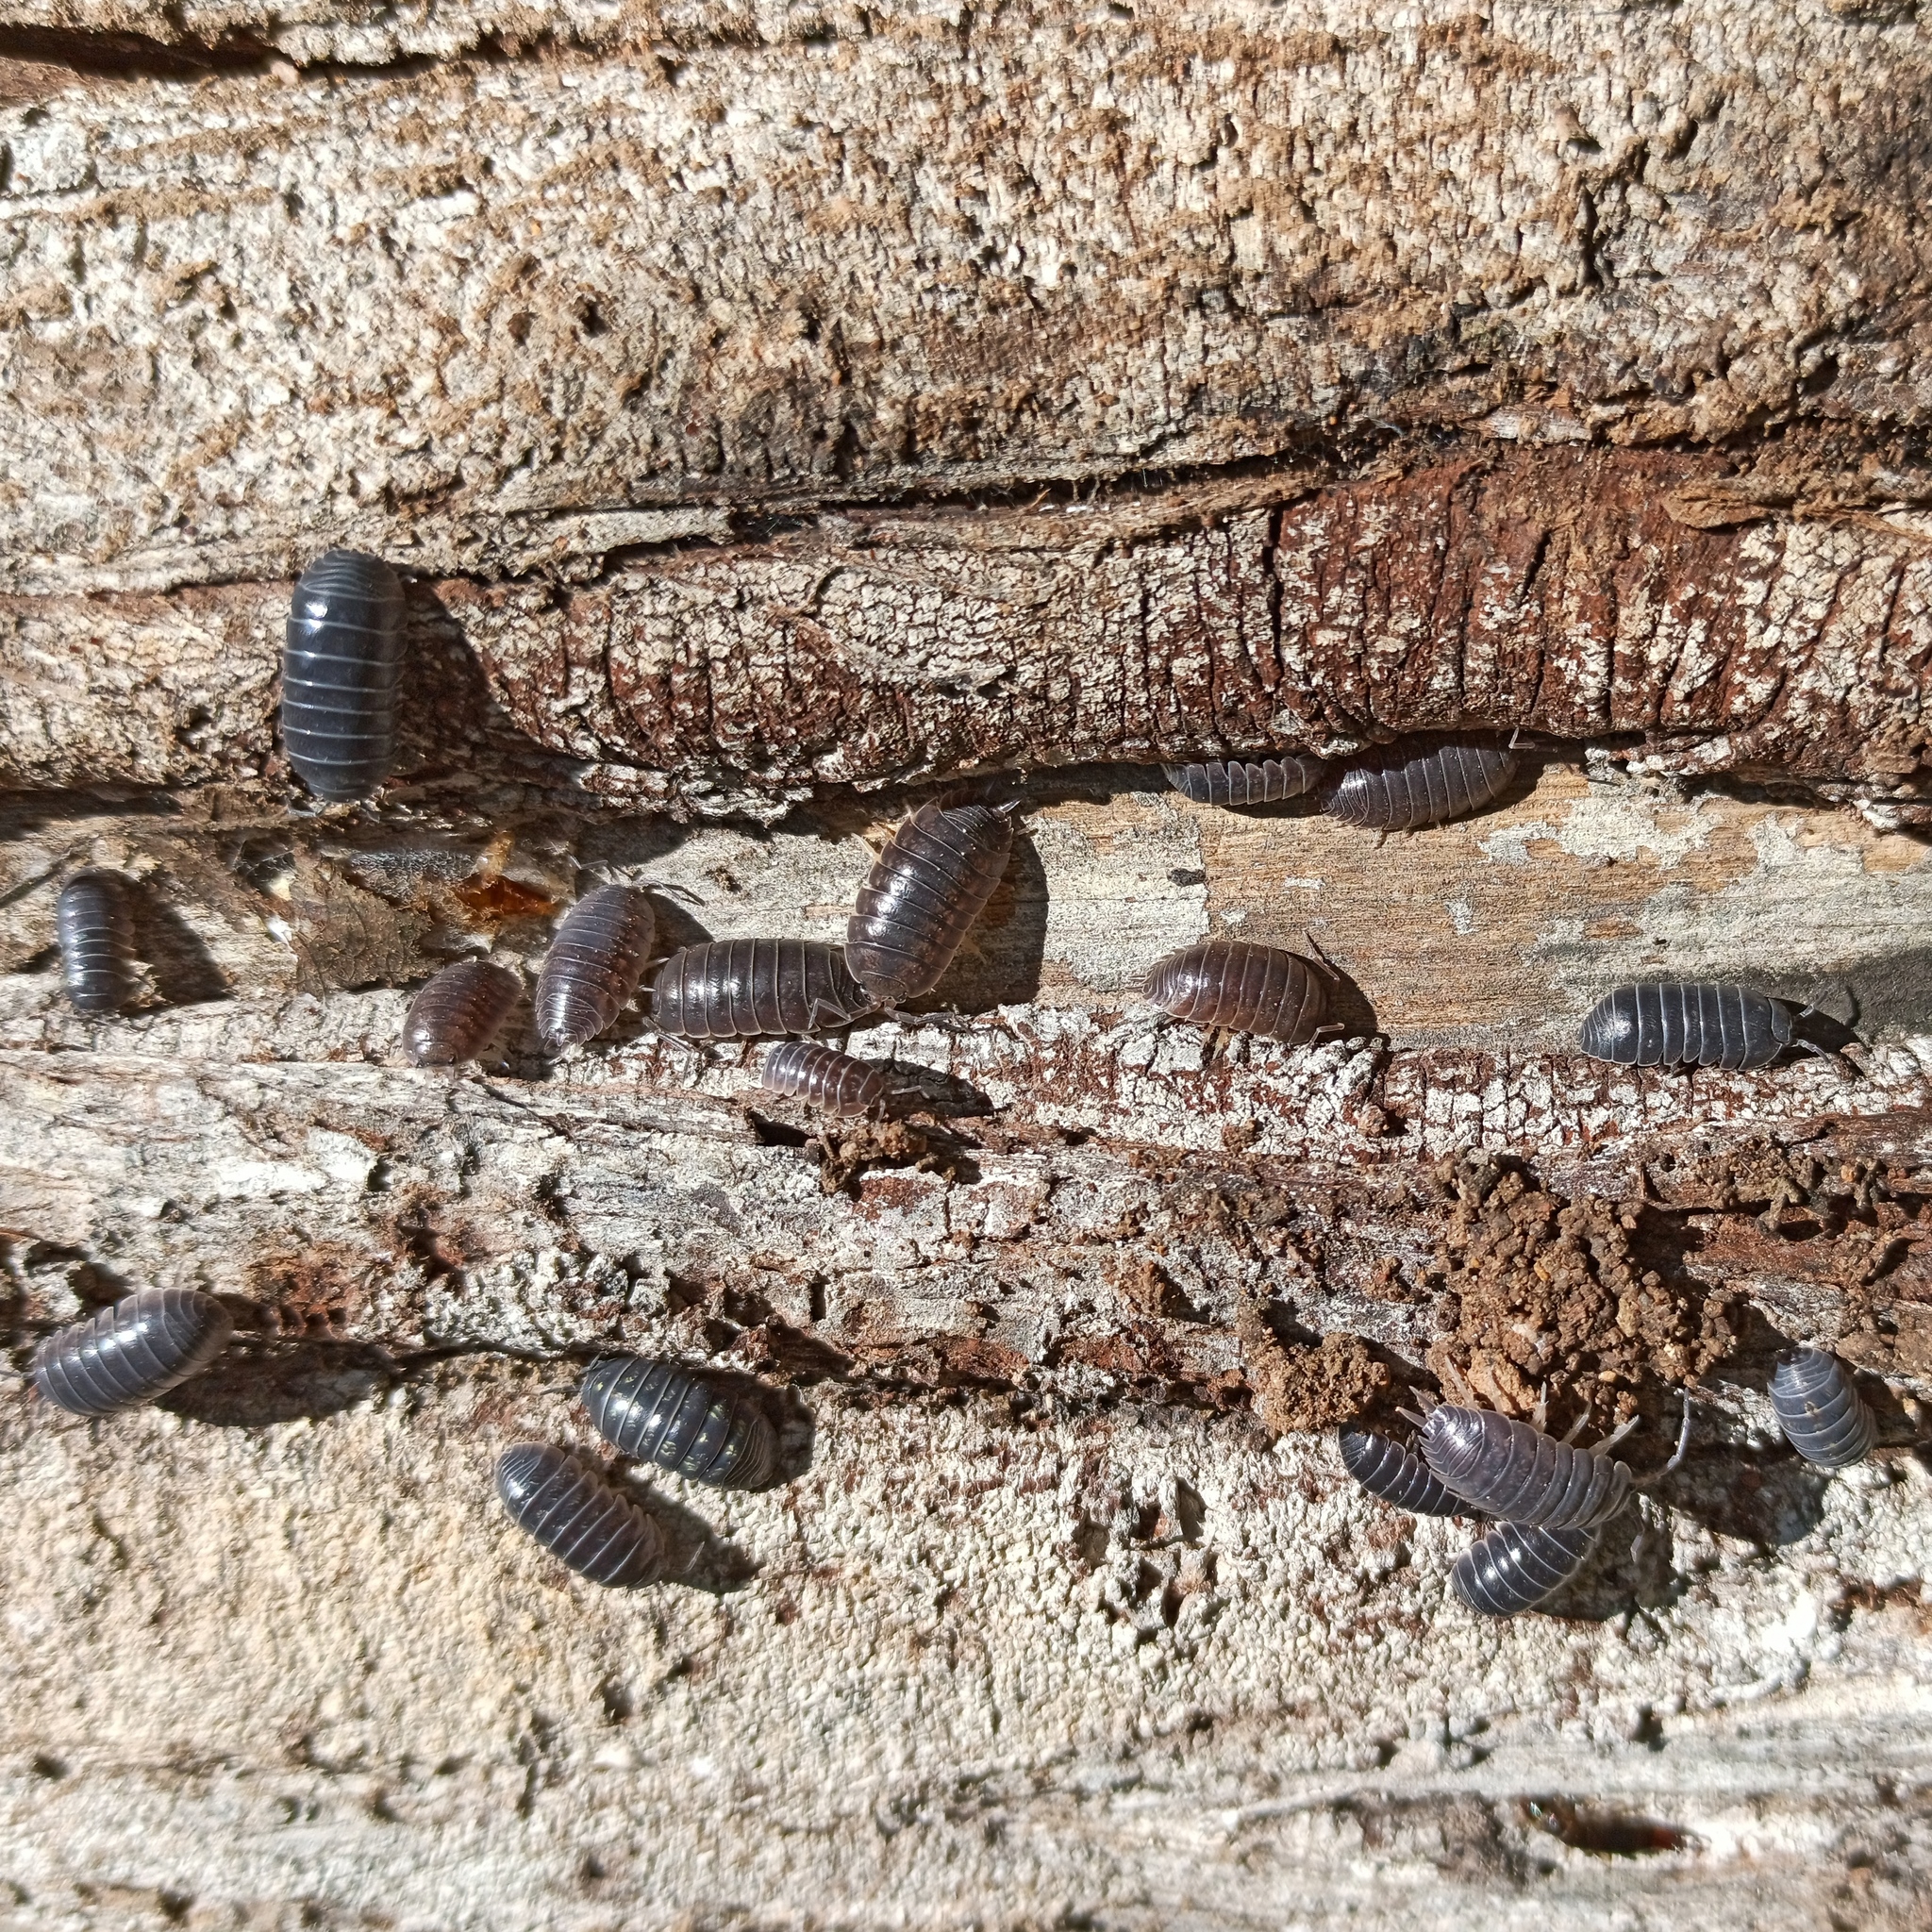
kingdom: Animalia
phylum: Arthropoda
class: Malacostraca
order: Isopoda
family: Armadillidiidae
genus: Armadillidium
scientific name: Armadillidium vulgare
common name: Common pill woodlouse
